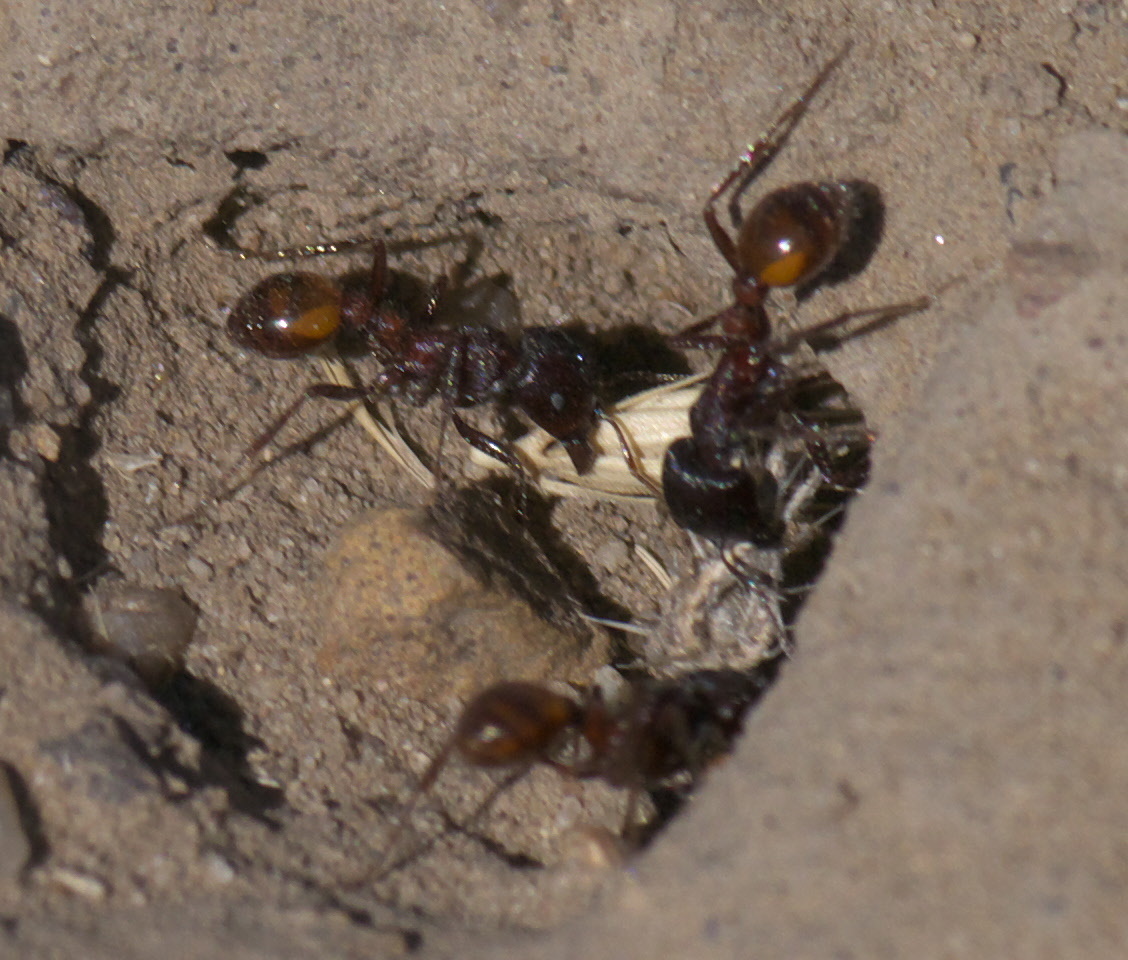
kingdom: Animalia
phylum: Arthropoda
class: Insecta
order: Hymenoptera
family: Formicidae
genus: Pogonomyrmex
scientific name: Pogonomyrmex rugosus
